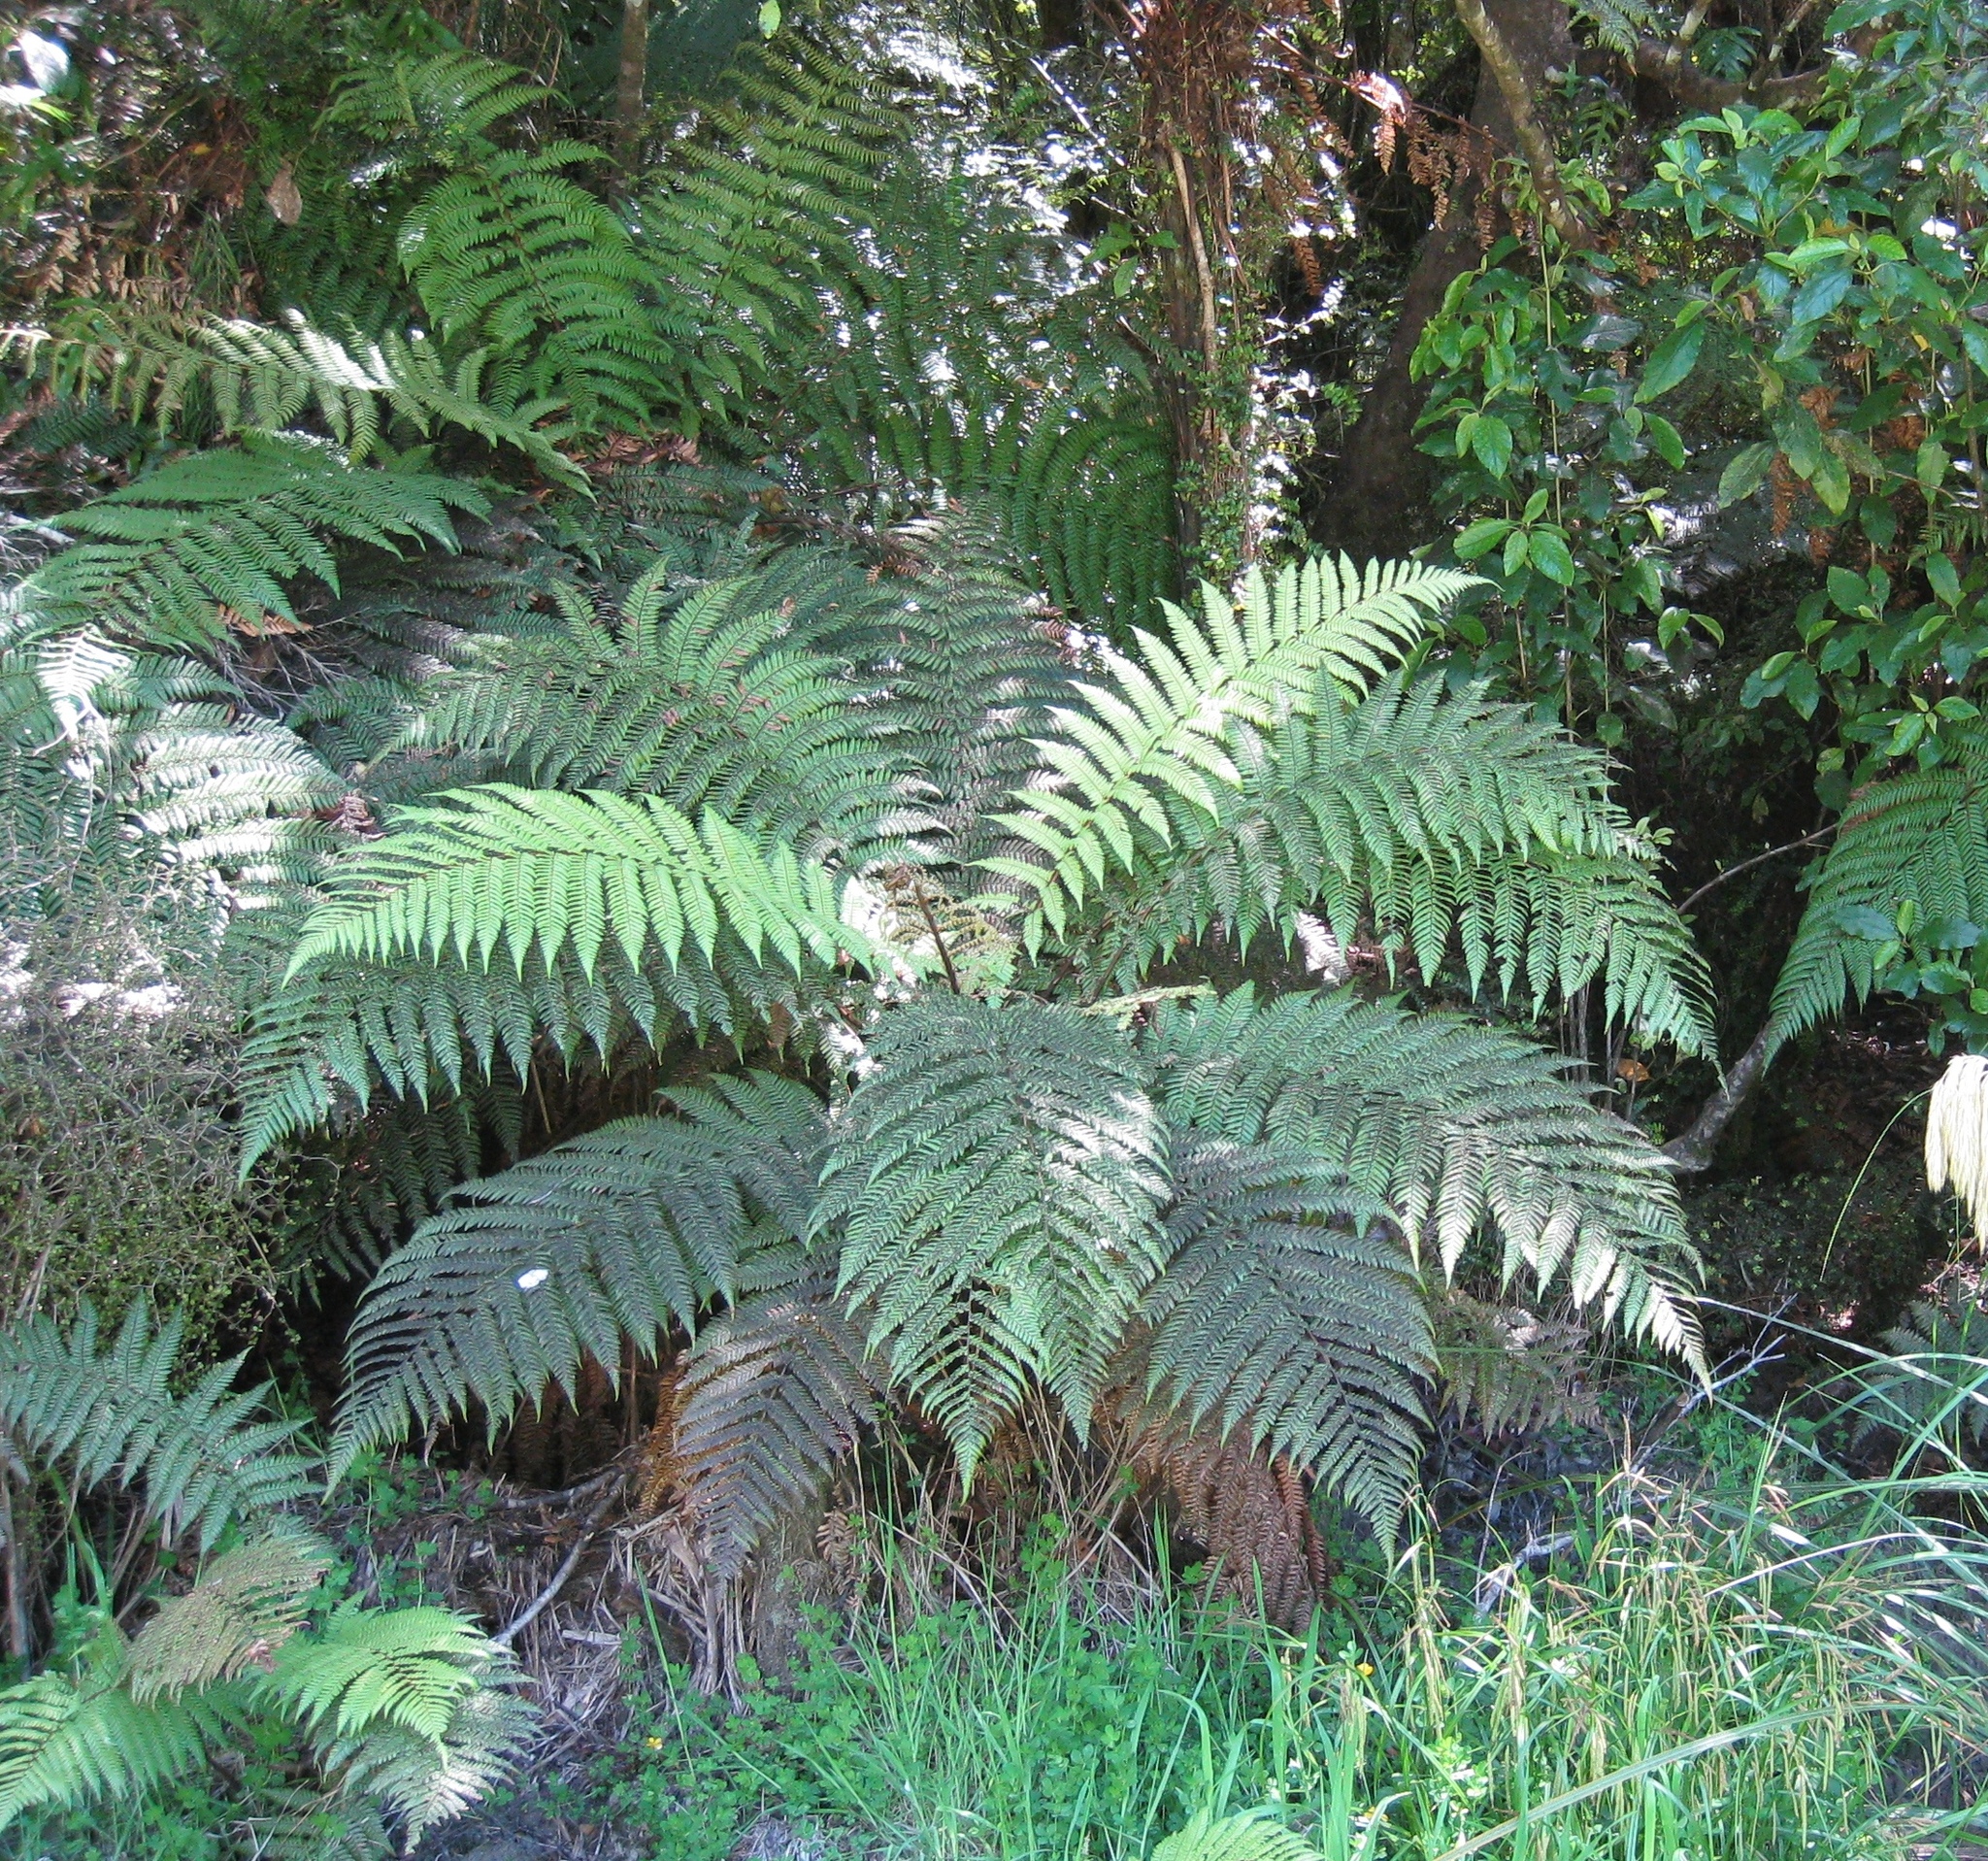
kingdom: Plantae
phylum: Tracheophyta
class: Polypodiopsida
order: Cyatheales
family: Dicksoniaceae
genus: Dicksonia
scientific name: Dicksonia squarrosa
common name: Hard treefern
